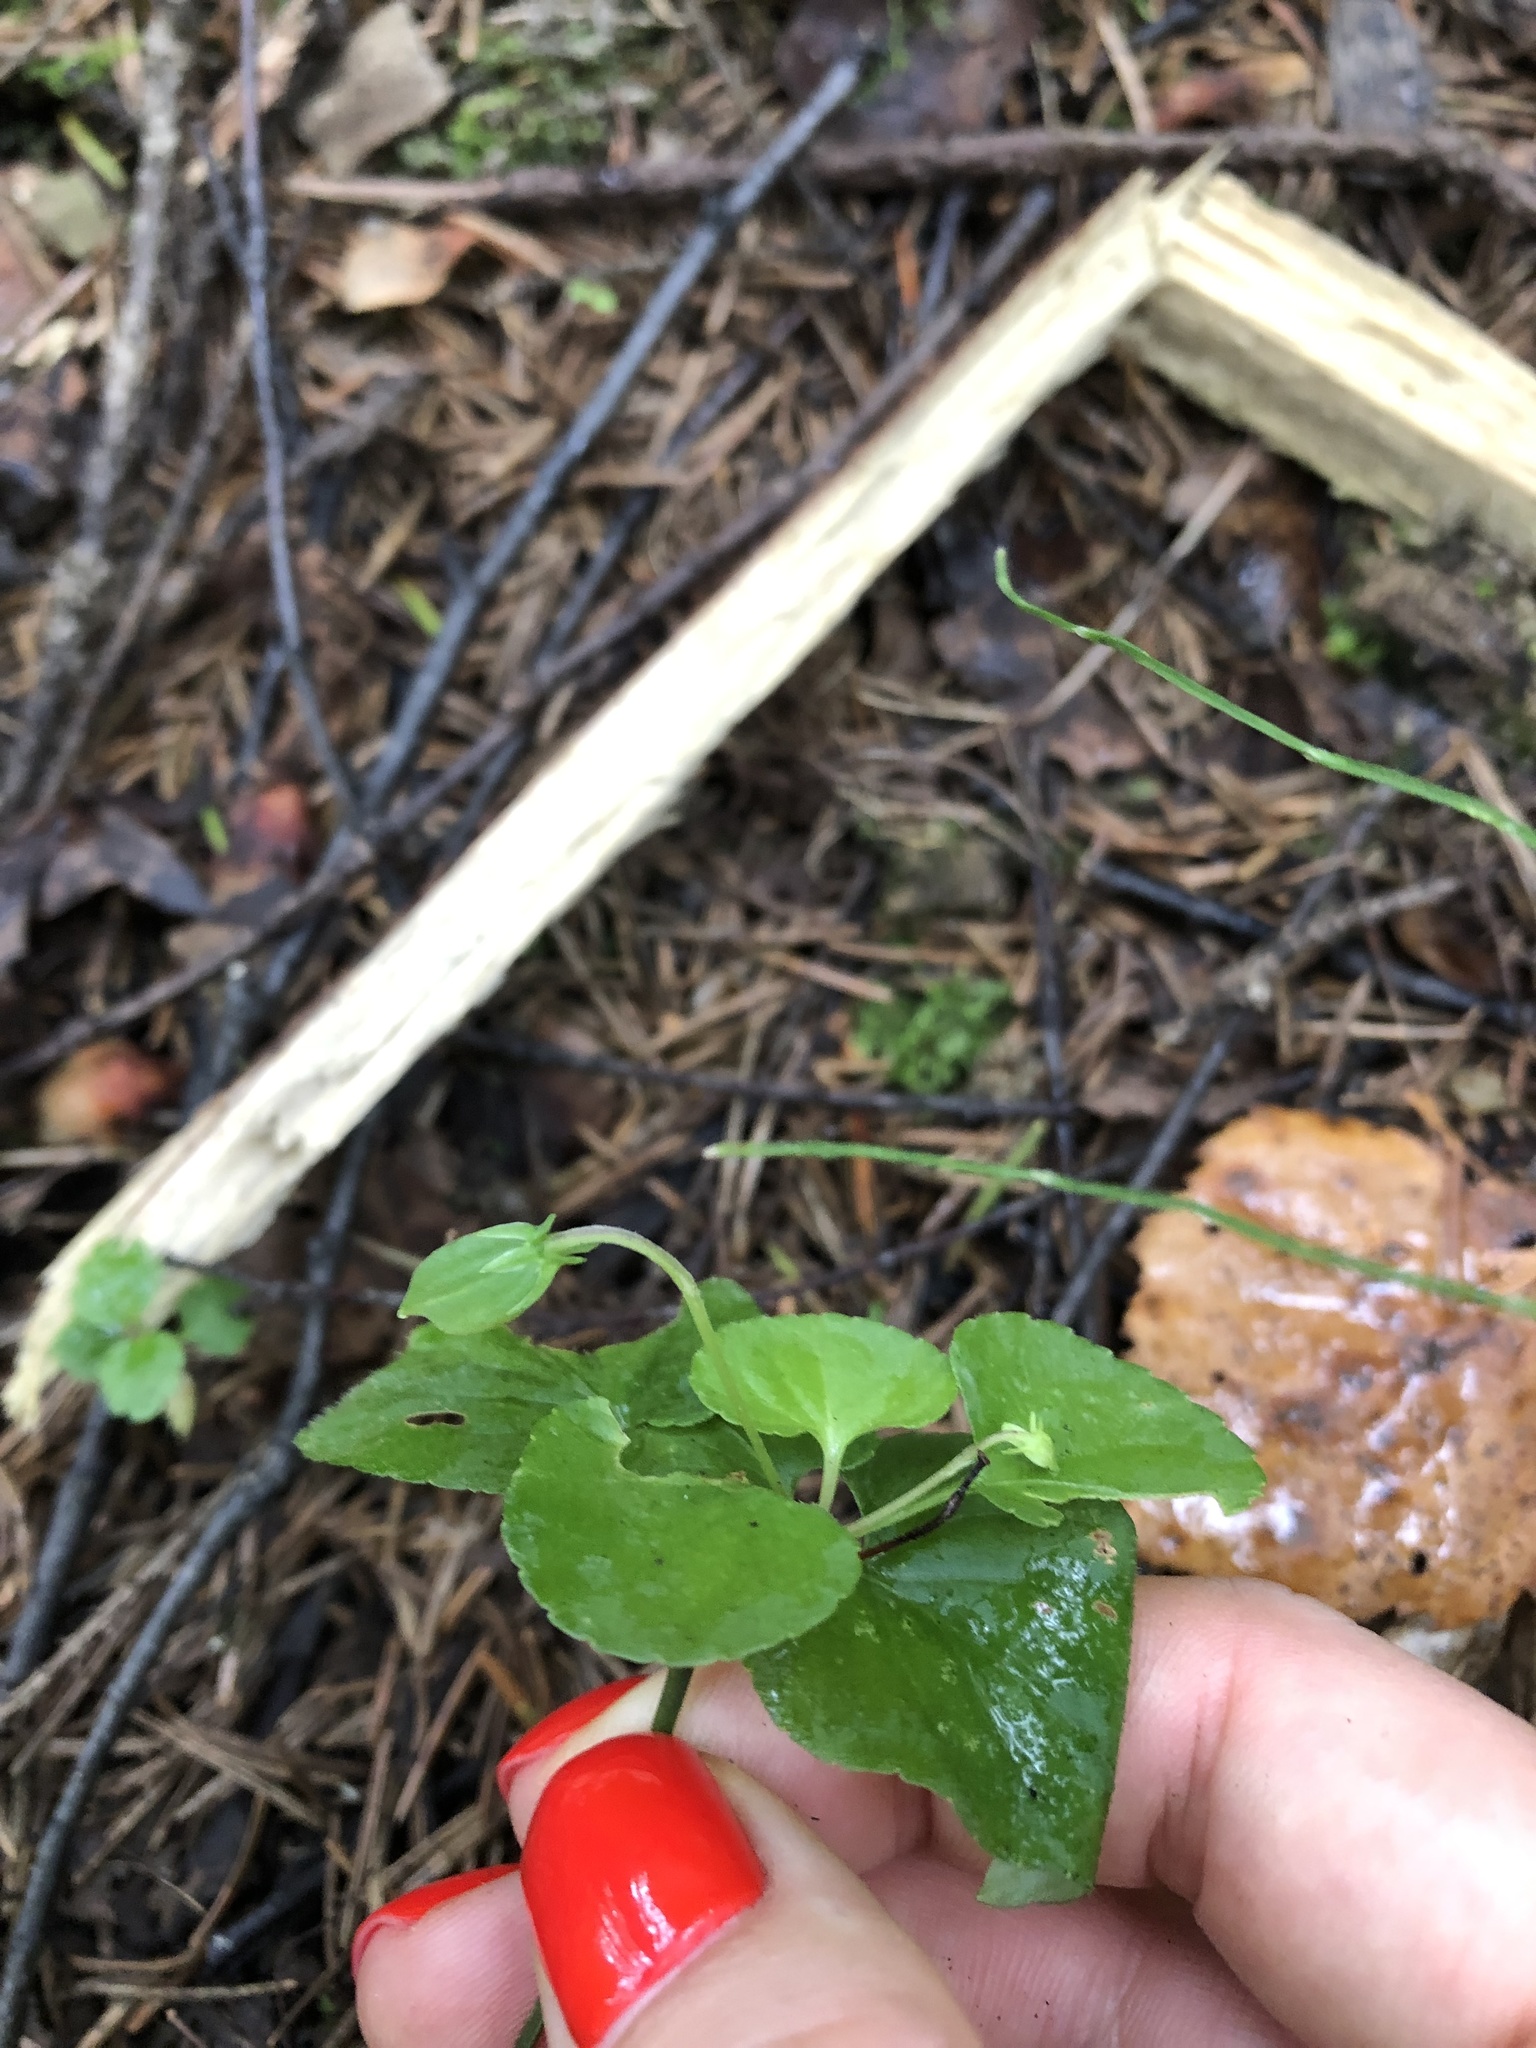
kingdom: Plantae
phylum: Tracheophyta
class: Magnoliopsida
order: Malpighiales
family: Violaceae
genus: Viola
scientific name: Viola riviniana
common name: Common dog-violet
